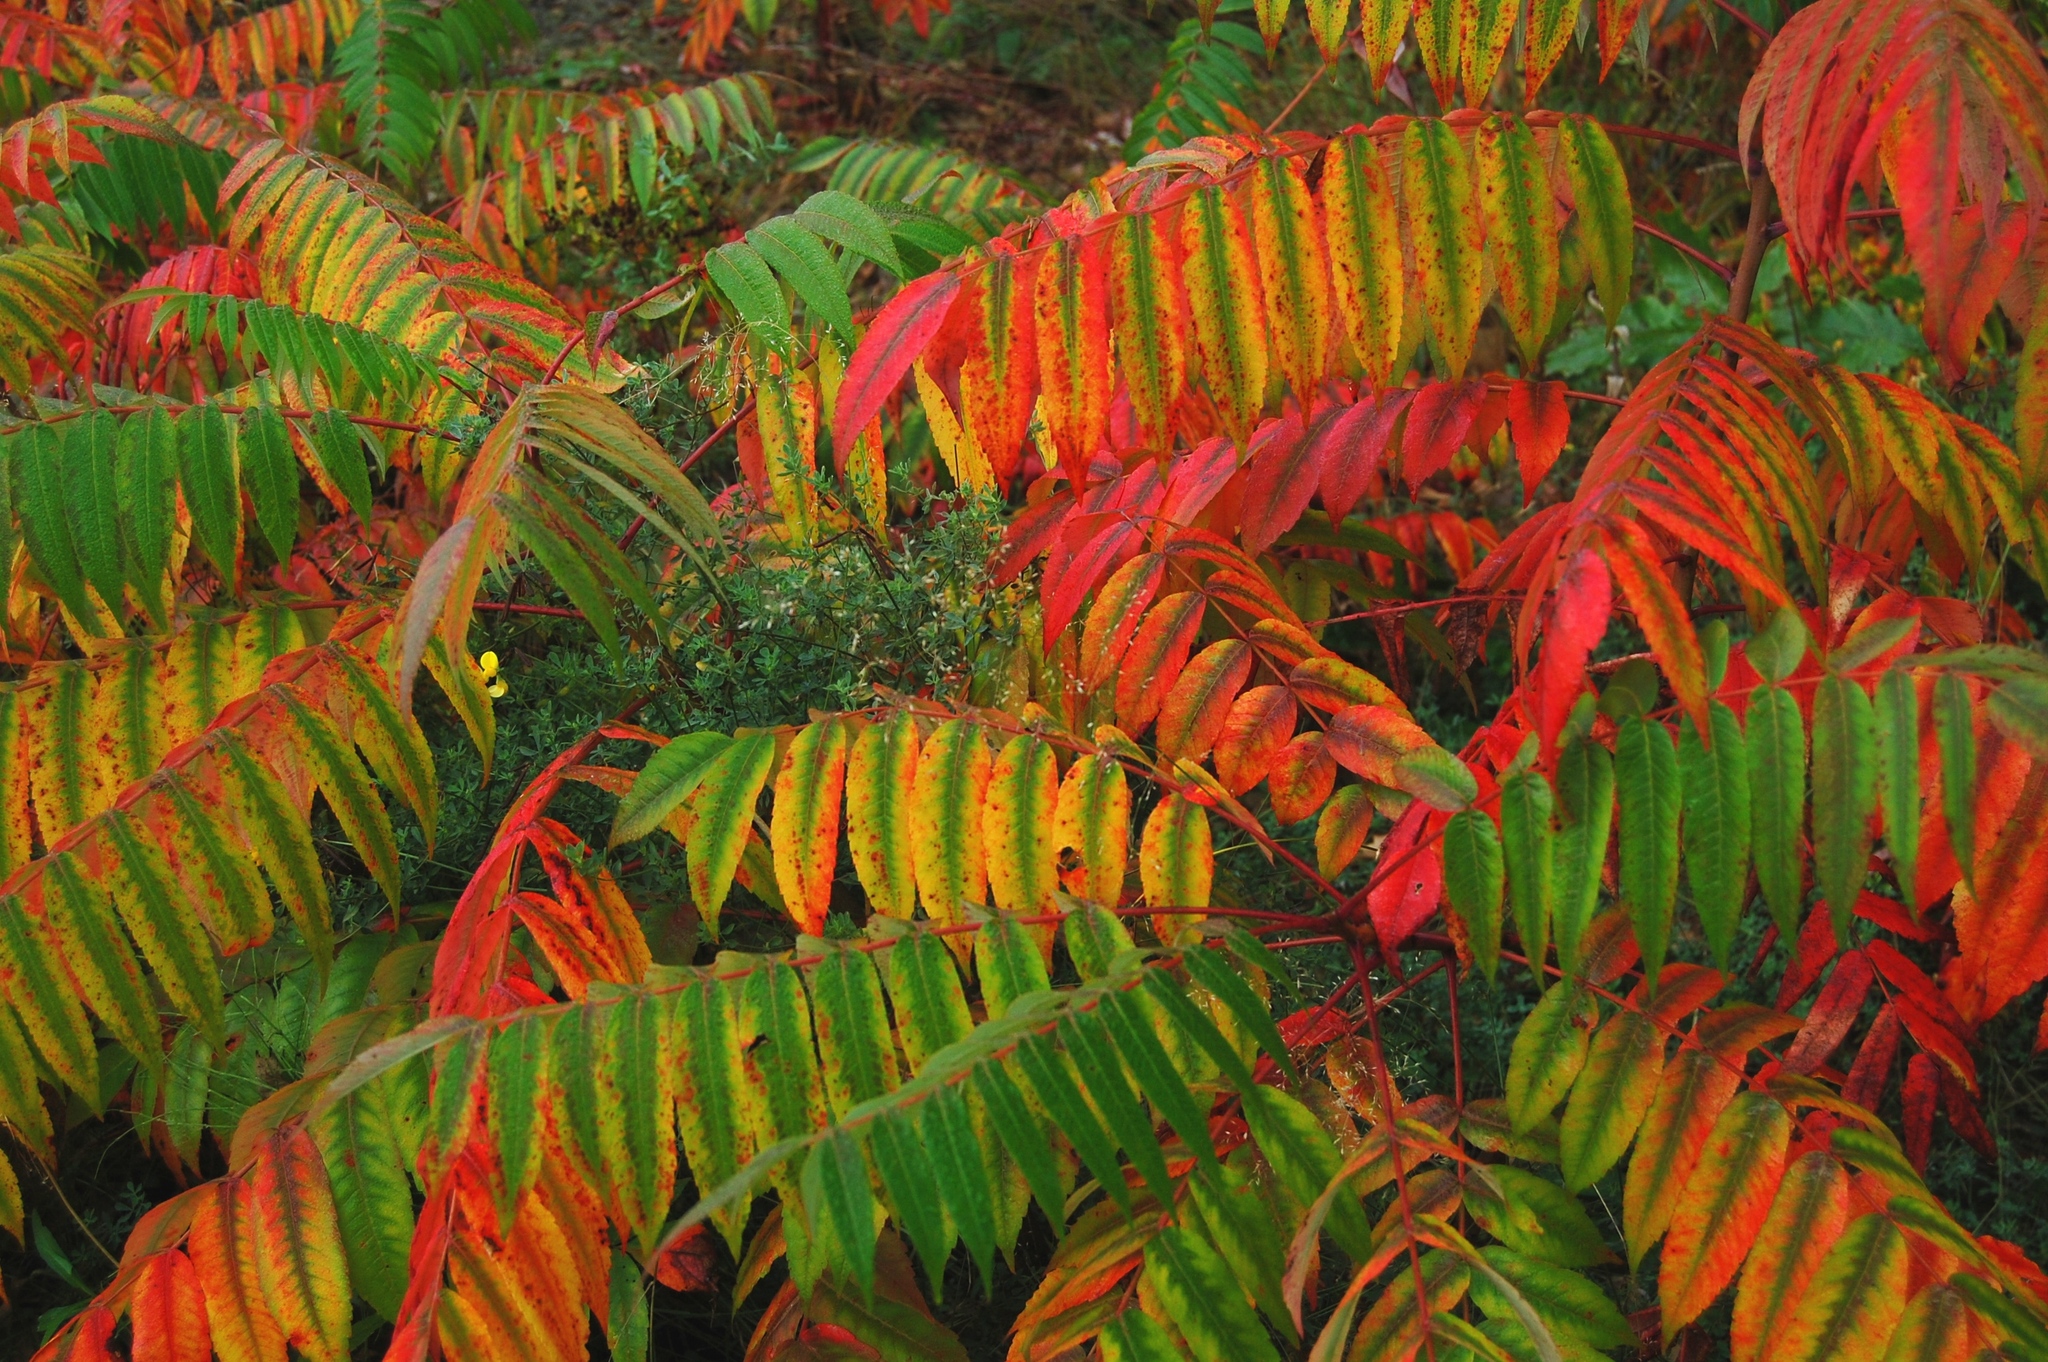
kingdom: Plantae
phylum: Tracheophyta
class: Magnoliopsida
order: Sapindales
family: Anacardiaceae
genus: Rhus
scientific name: Rhus typhina
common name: Staghorn sumac
